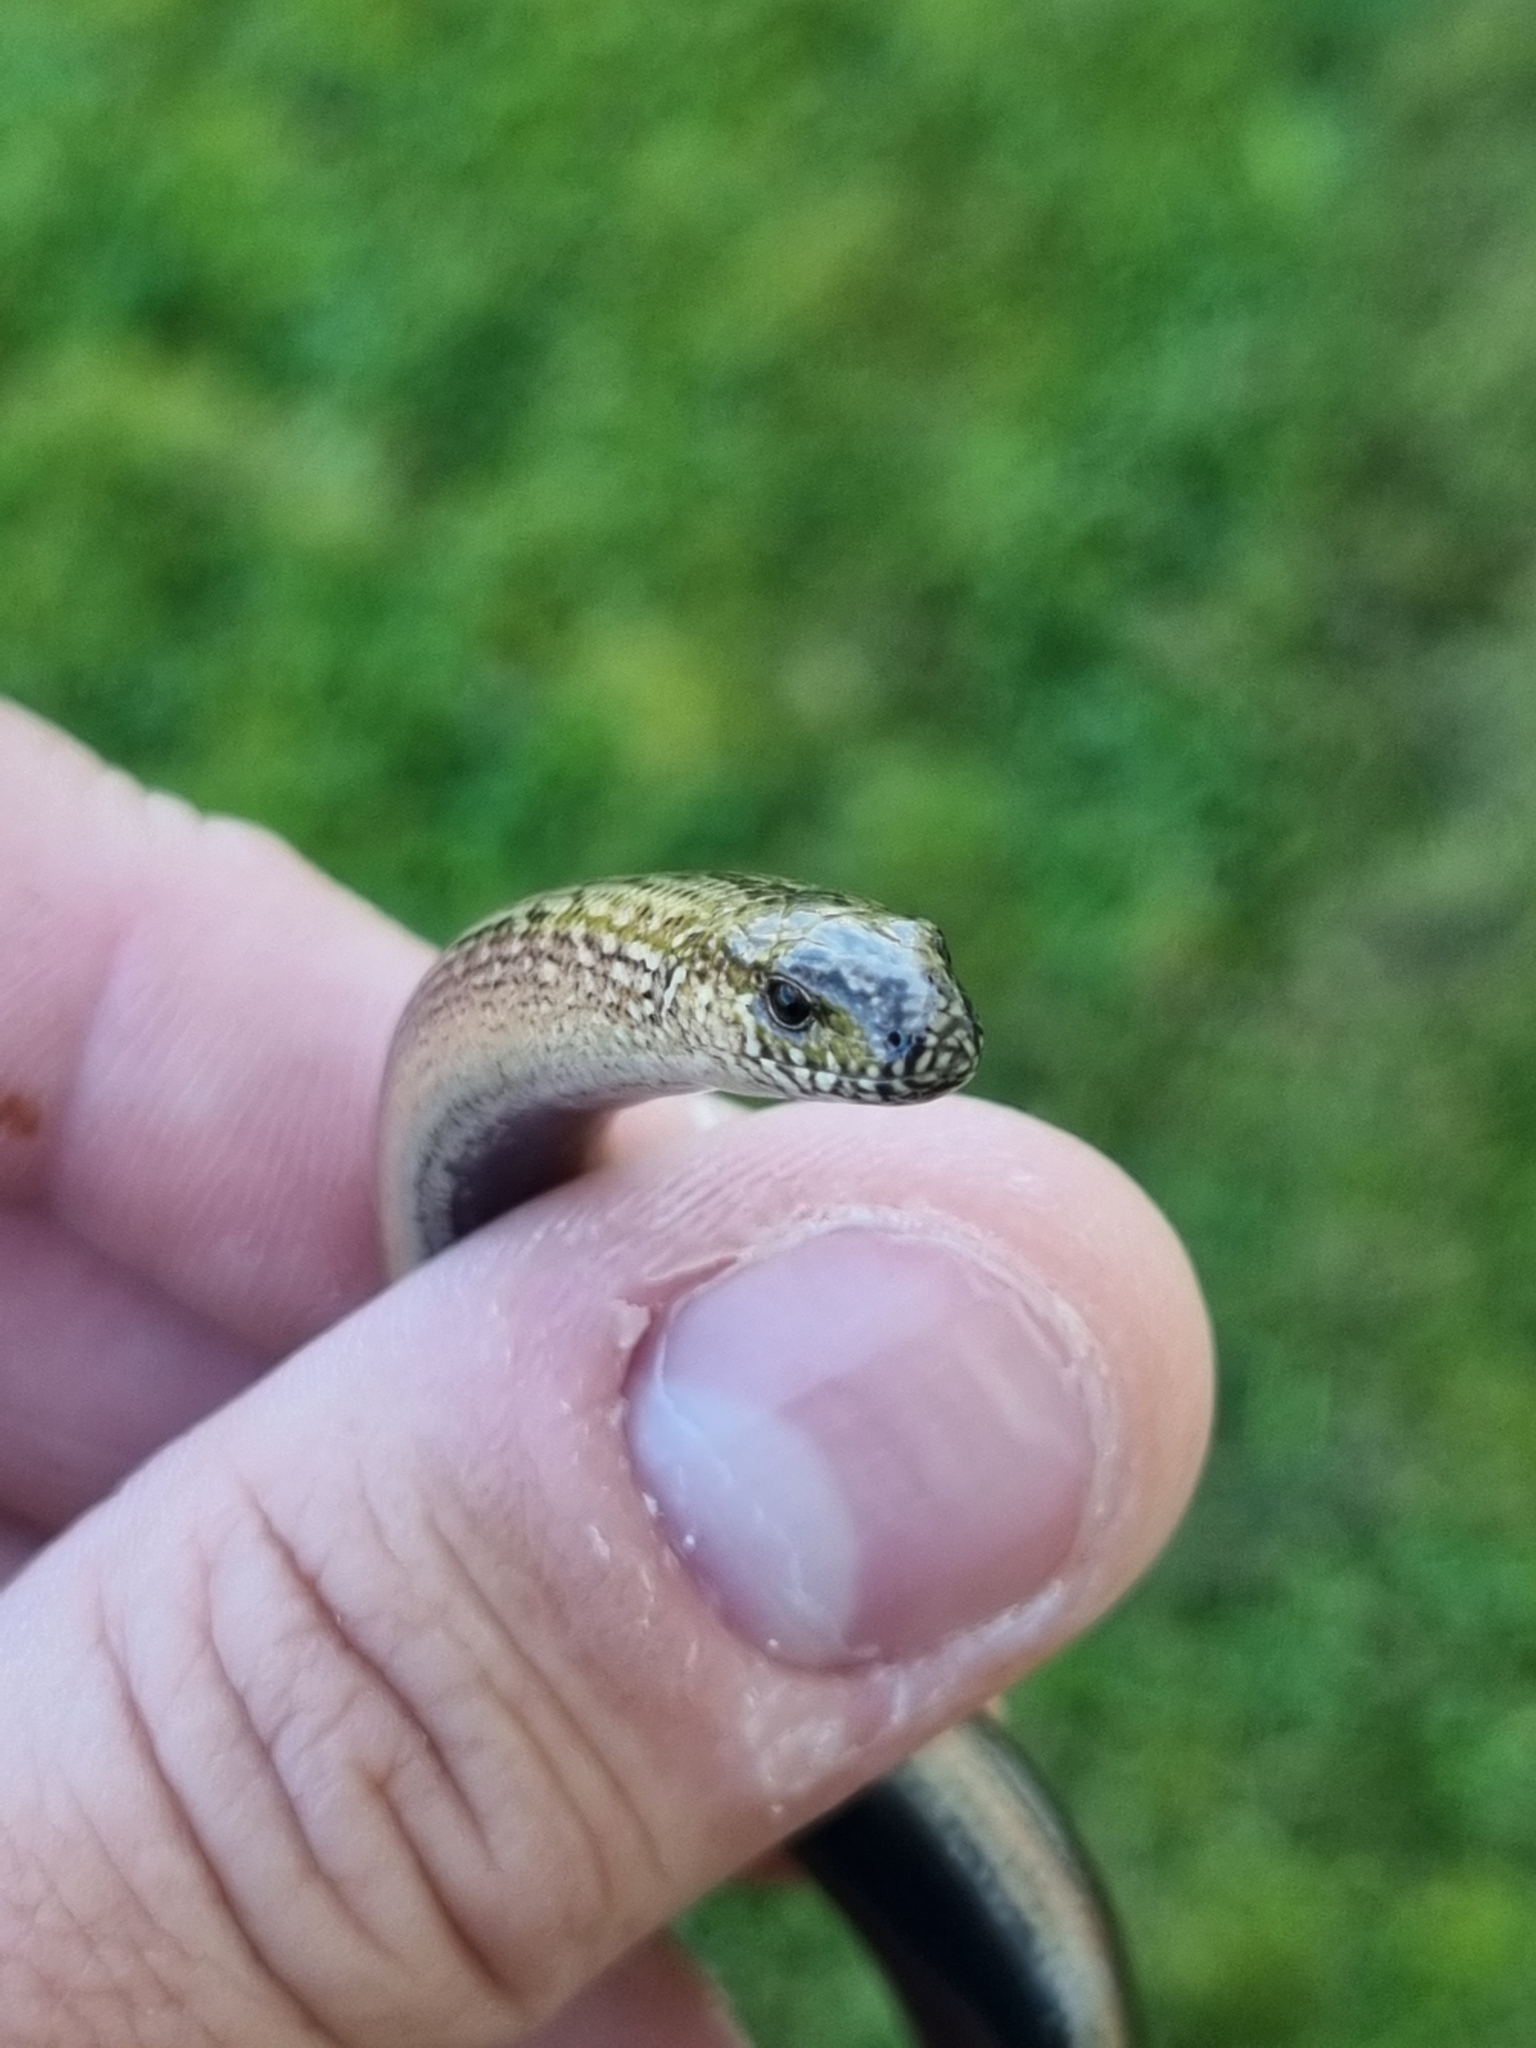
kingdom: Animalia
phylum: Chordata
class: Squamata
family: Anguidae
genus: Anguis
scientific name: Anguis fragilis
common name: Slow worm
